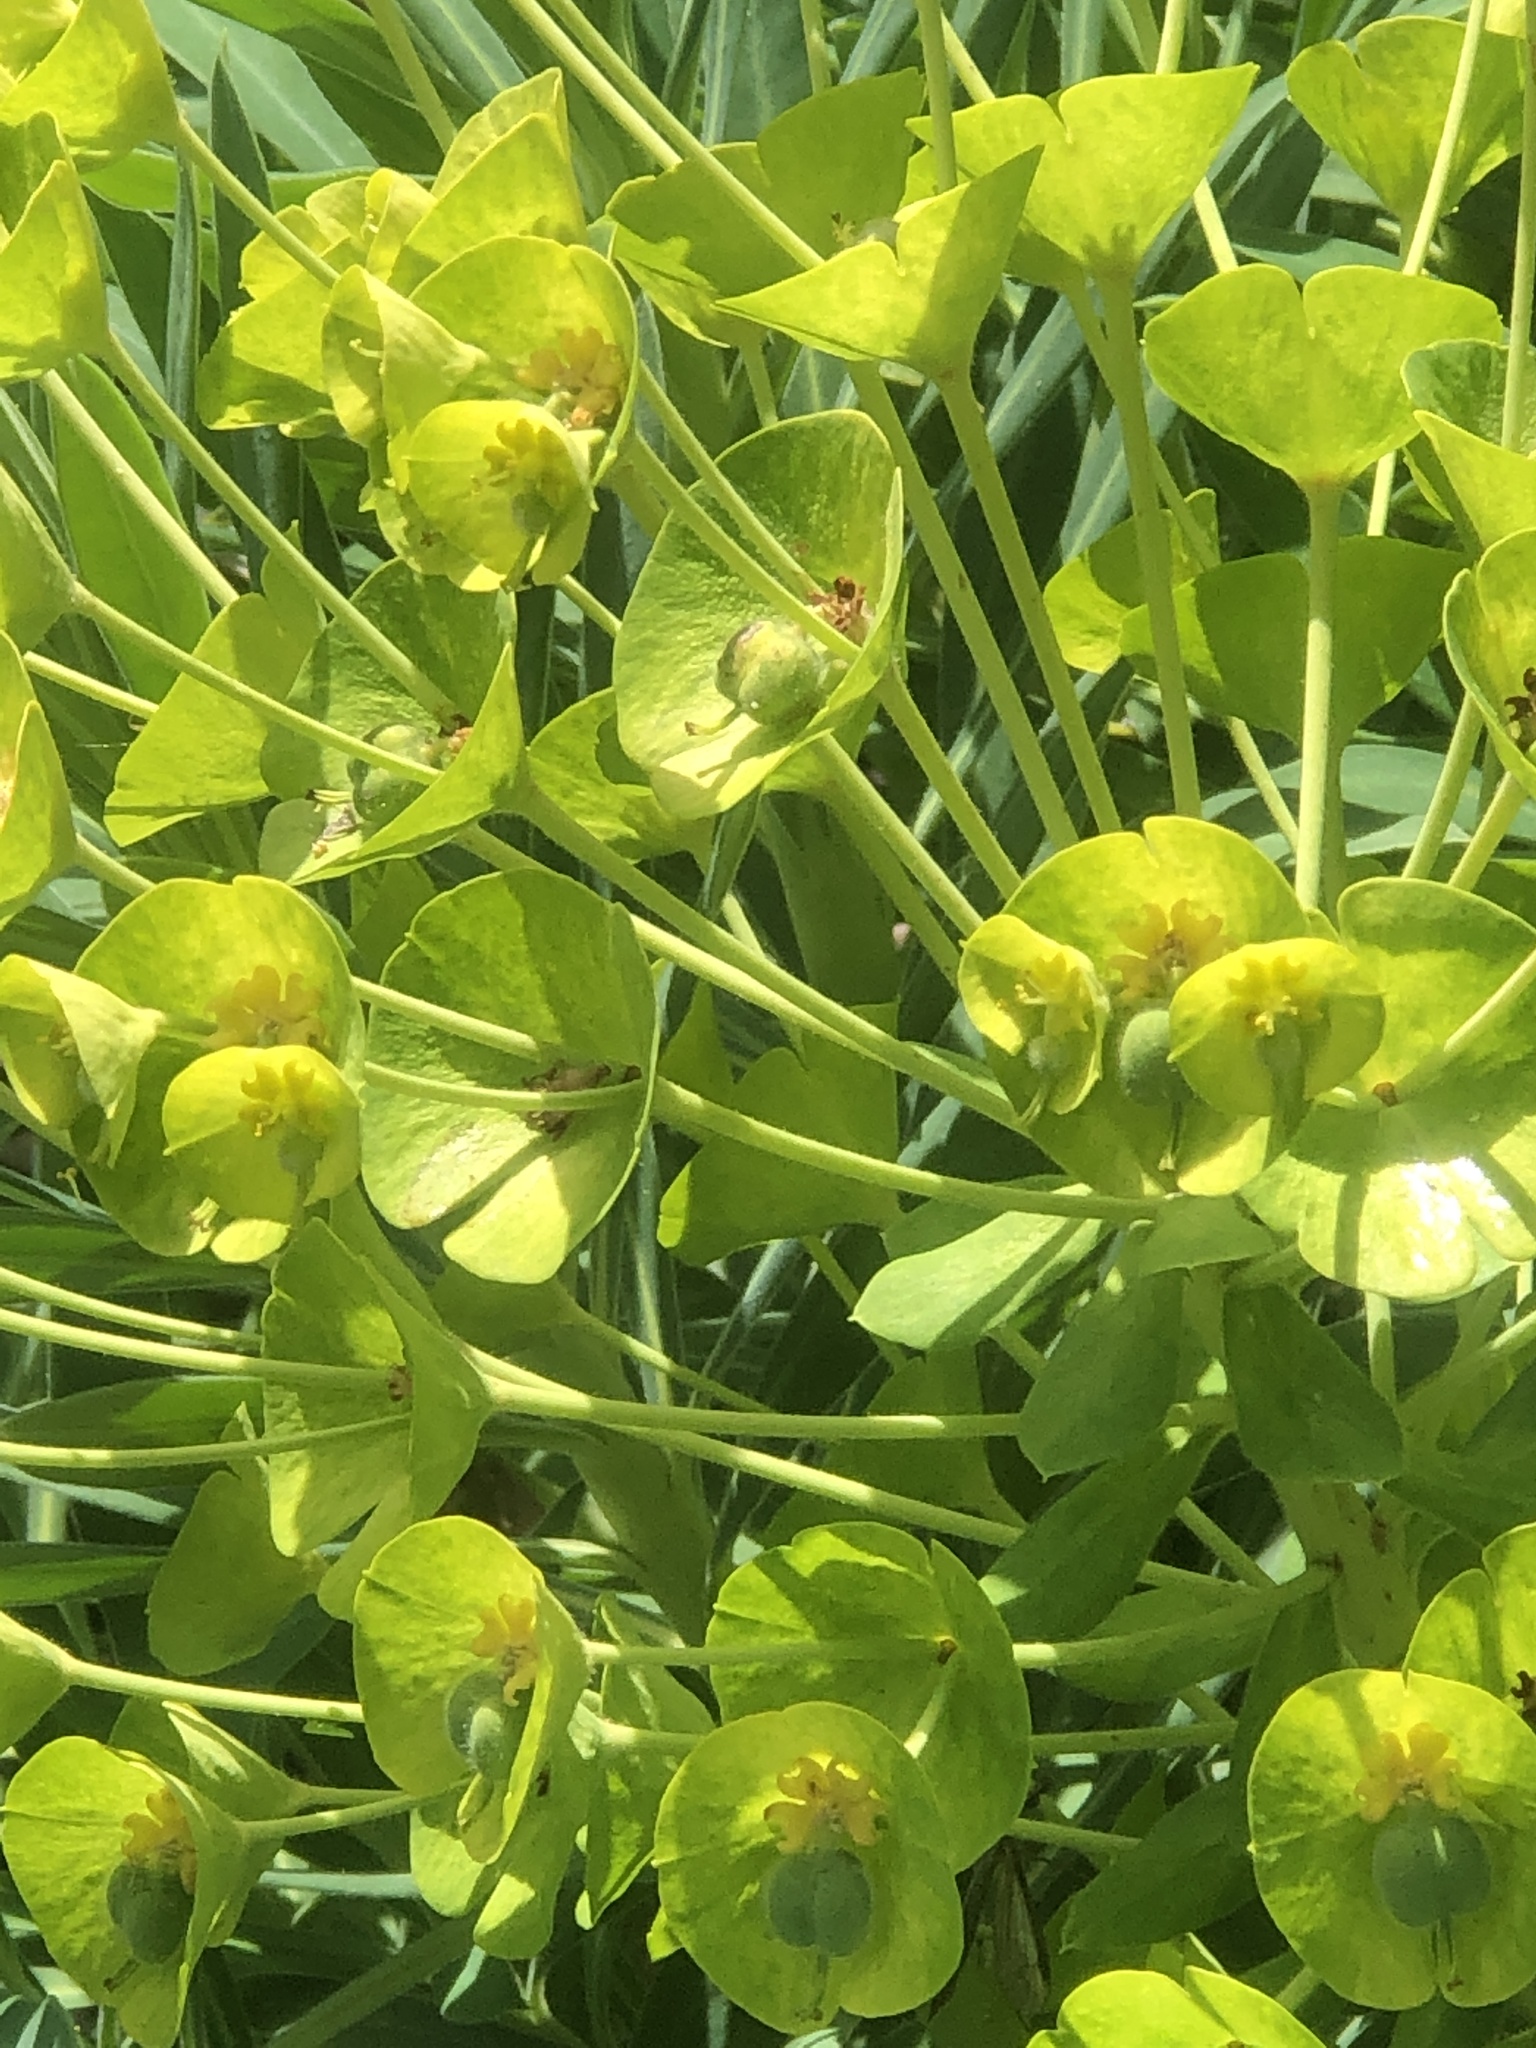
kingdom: Plantae
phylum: Tracheophyta
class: Magnoliopsida
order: Malpighiales
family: Euphorbiaceae
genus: Euphorbia
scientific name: Euphorbia characias
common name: Mediterranean spurge
